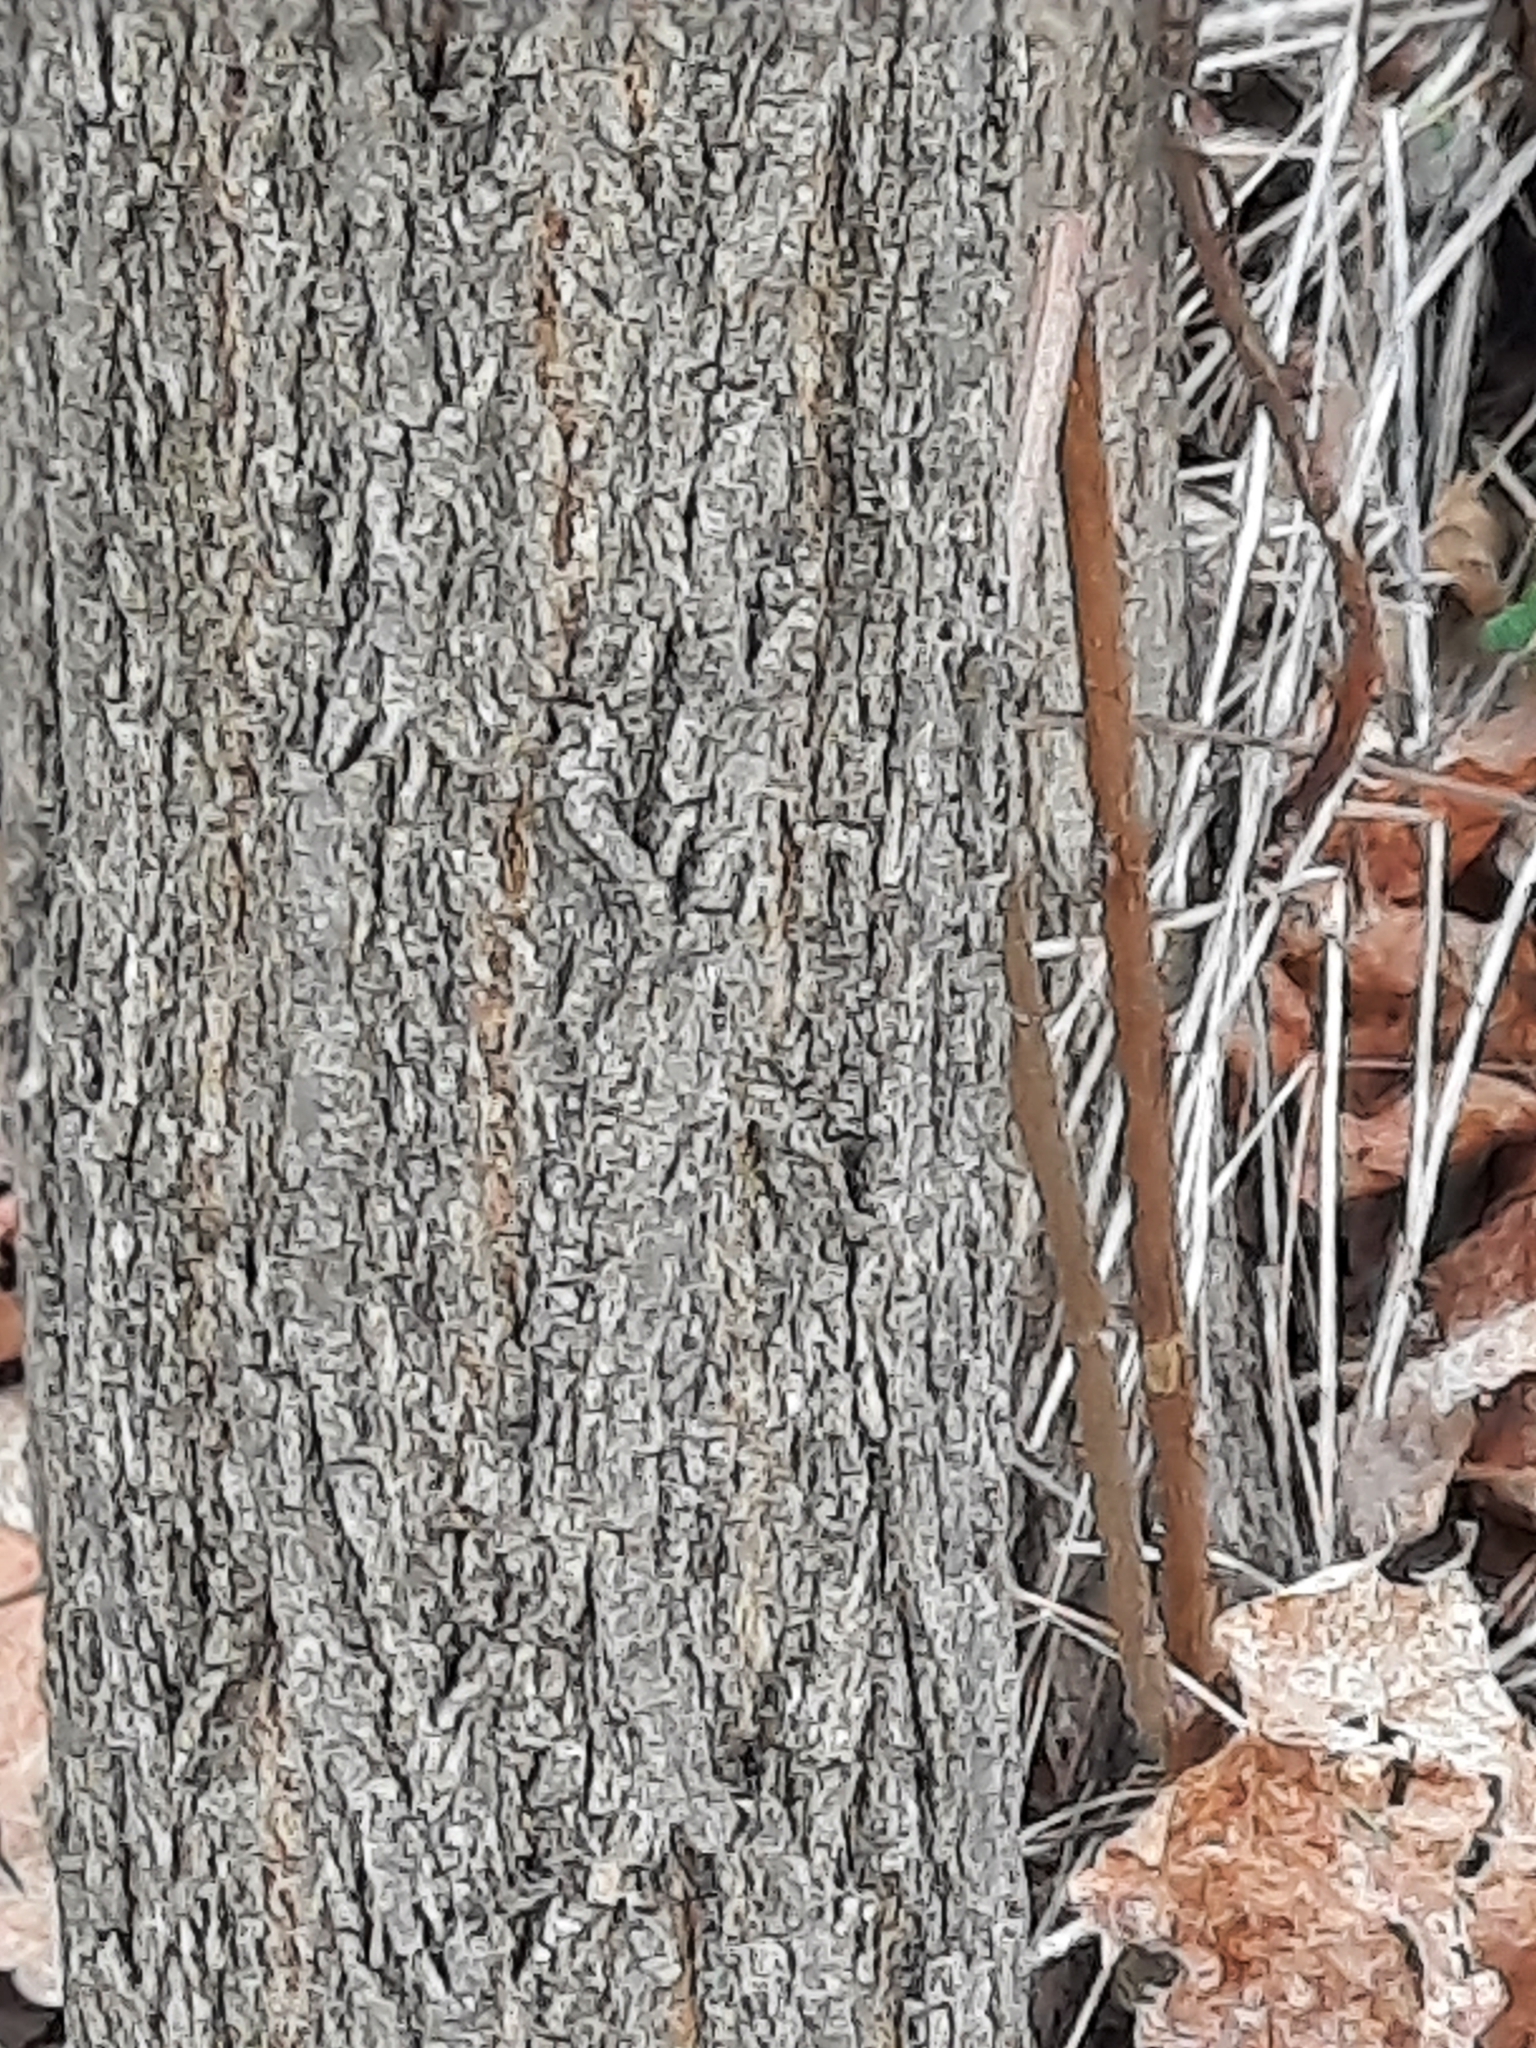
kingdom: Plantae
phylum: Tracheophyta
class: Magnoliopsida
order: Fabales
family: Fabaceae
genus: Robinia
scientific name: Robinia pseudoacacia
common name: Black locust
